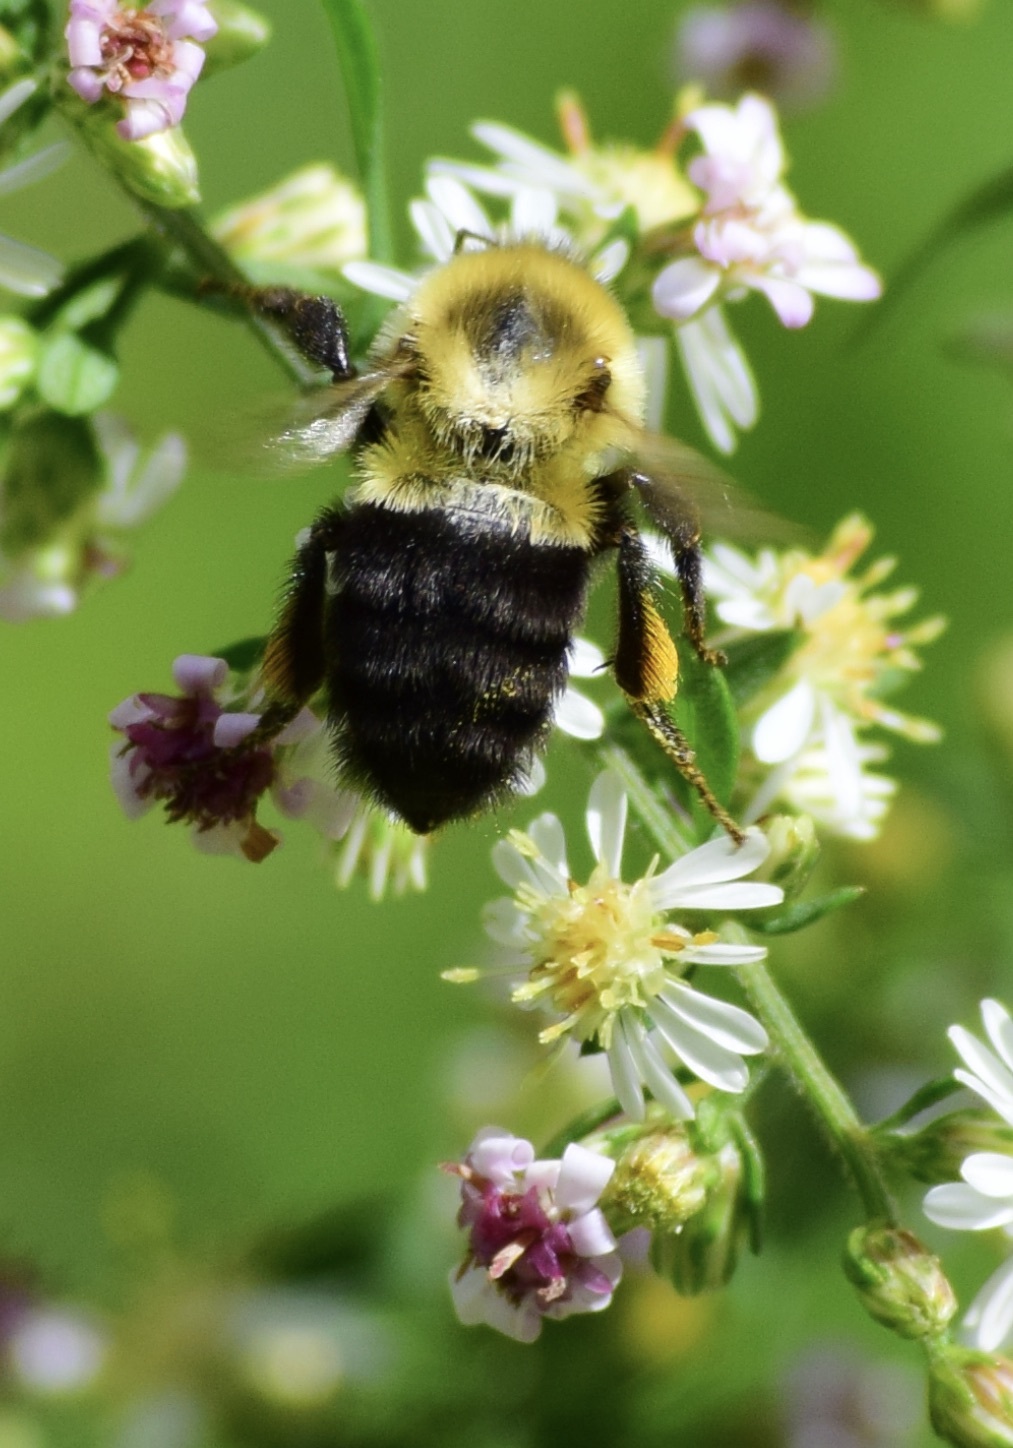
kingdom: Animalia
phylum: Arthropoda
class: Insecta
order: Hymenoptera
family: Apidae
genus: Bombus
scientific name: Bombus impatiens
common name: Common eastern bumble bee
